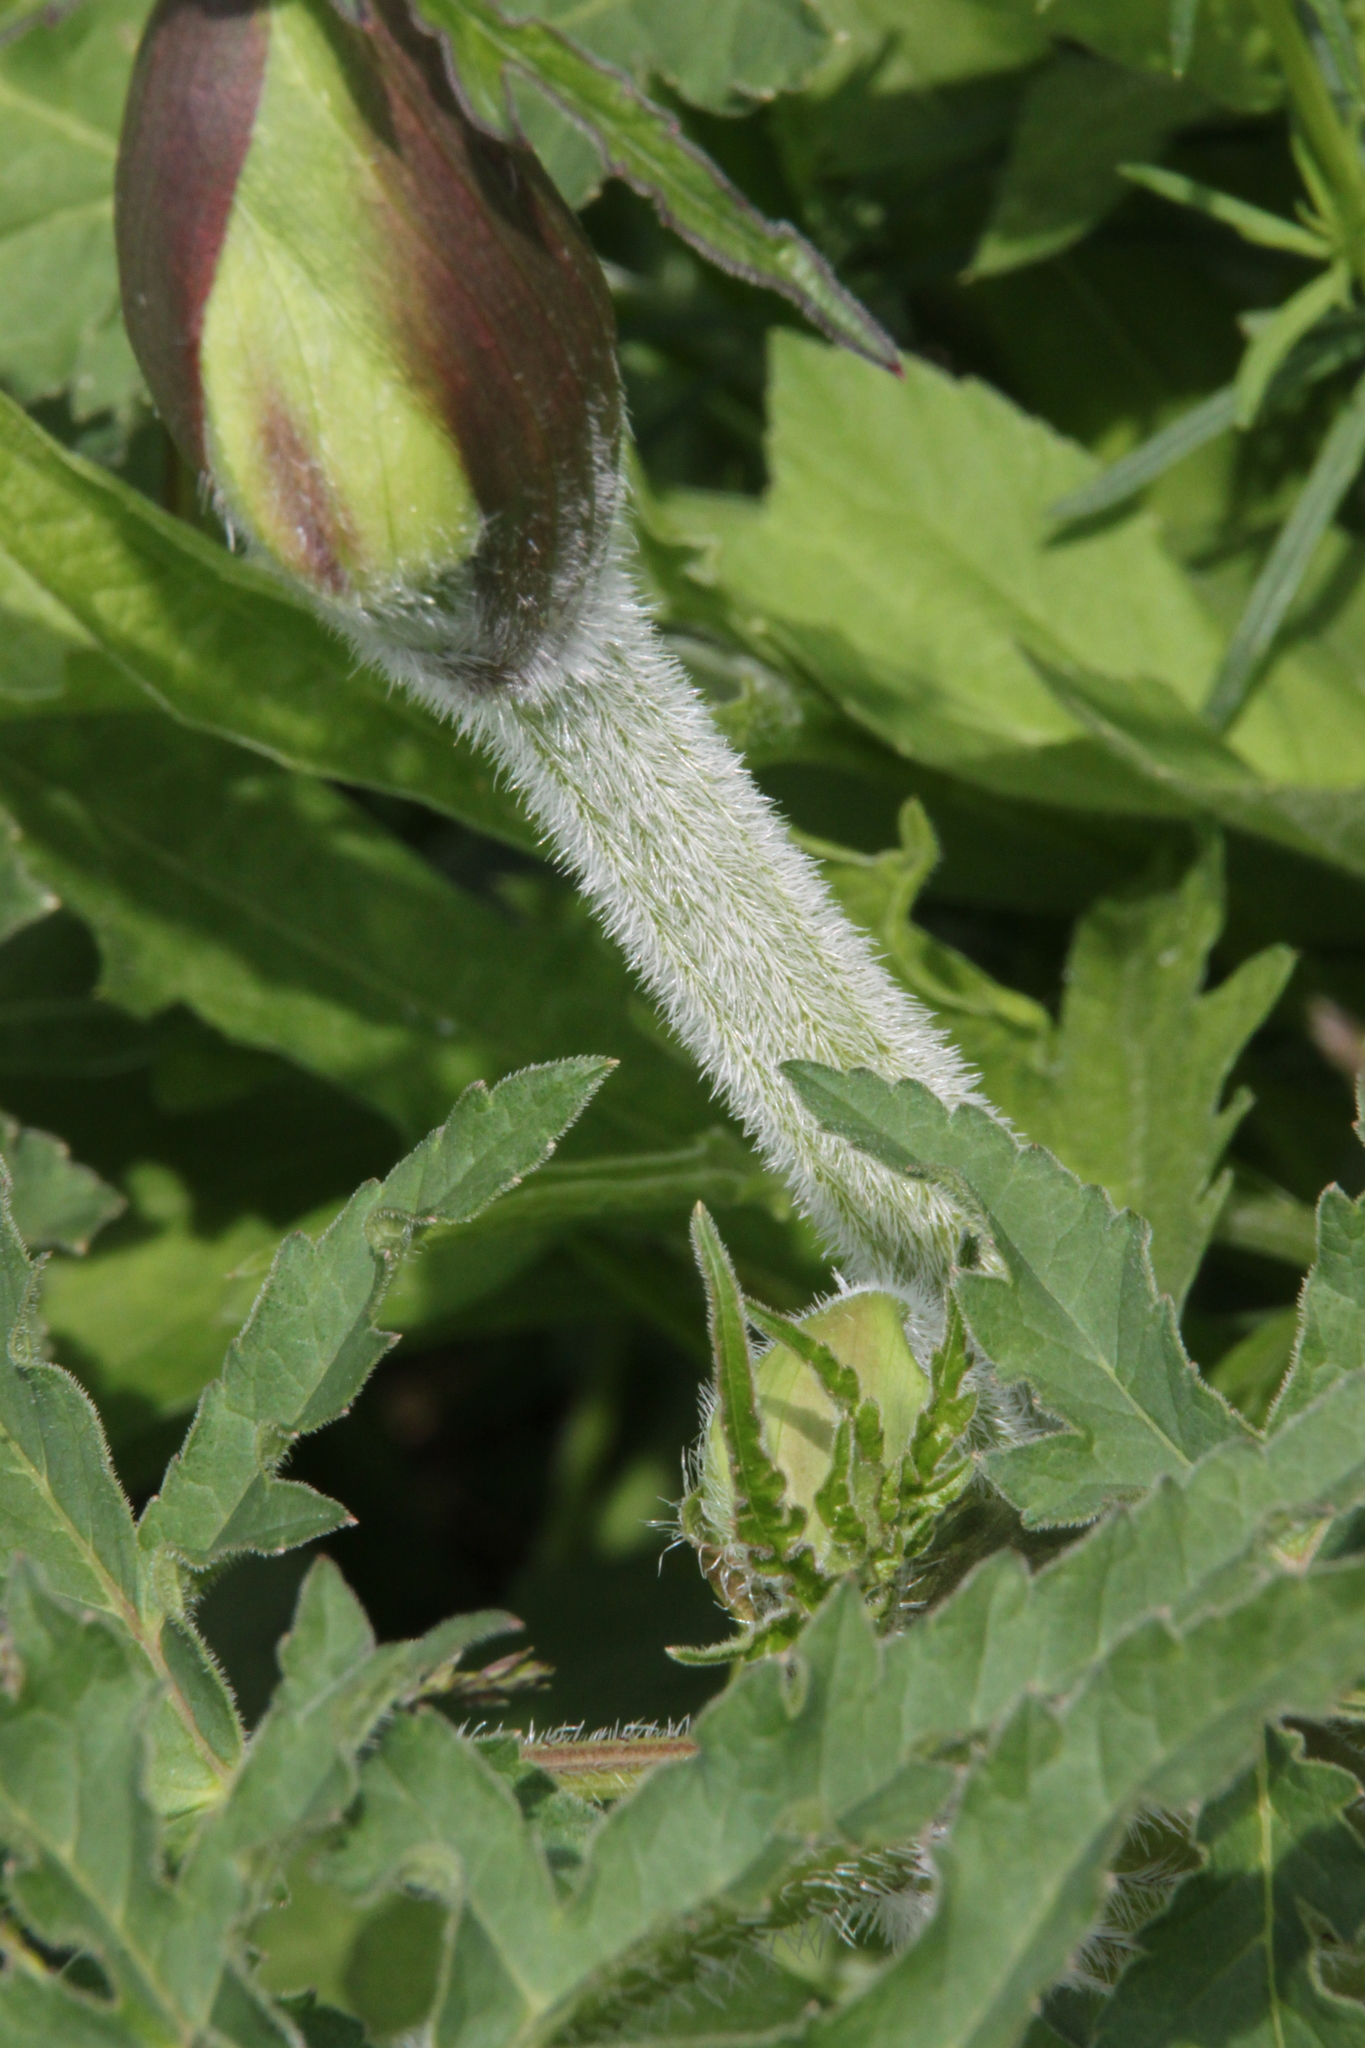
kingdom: Plantae
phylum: Tracheophyta
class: Magnoliopsida
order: Apiales
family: Apiaceae
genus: Heracleum
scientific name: Heracleum sphondylium
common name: Hogweed
